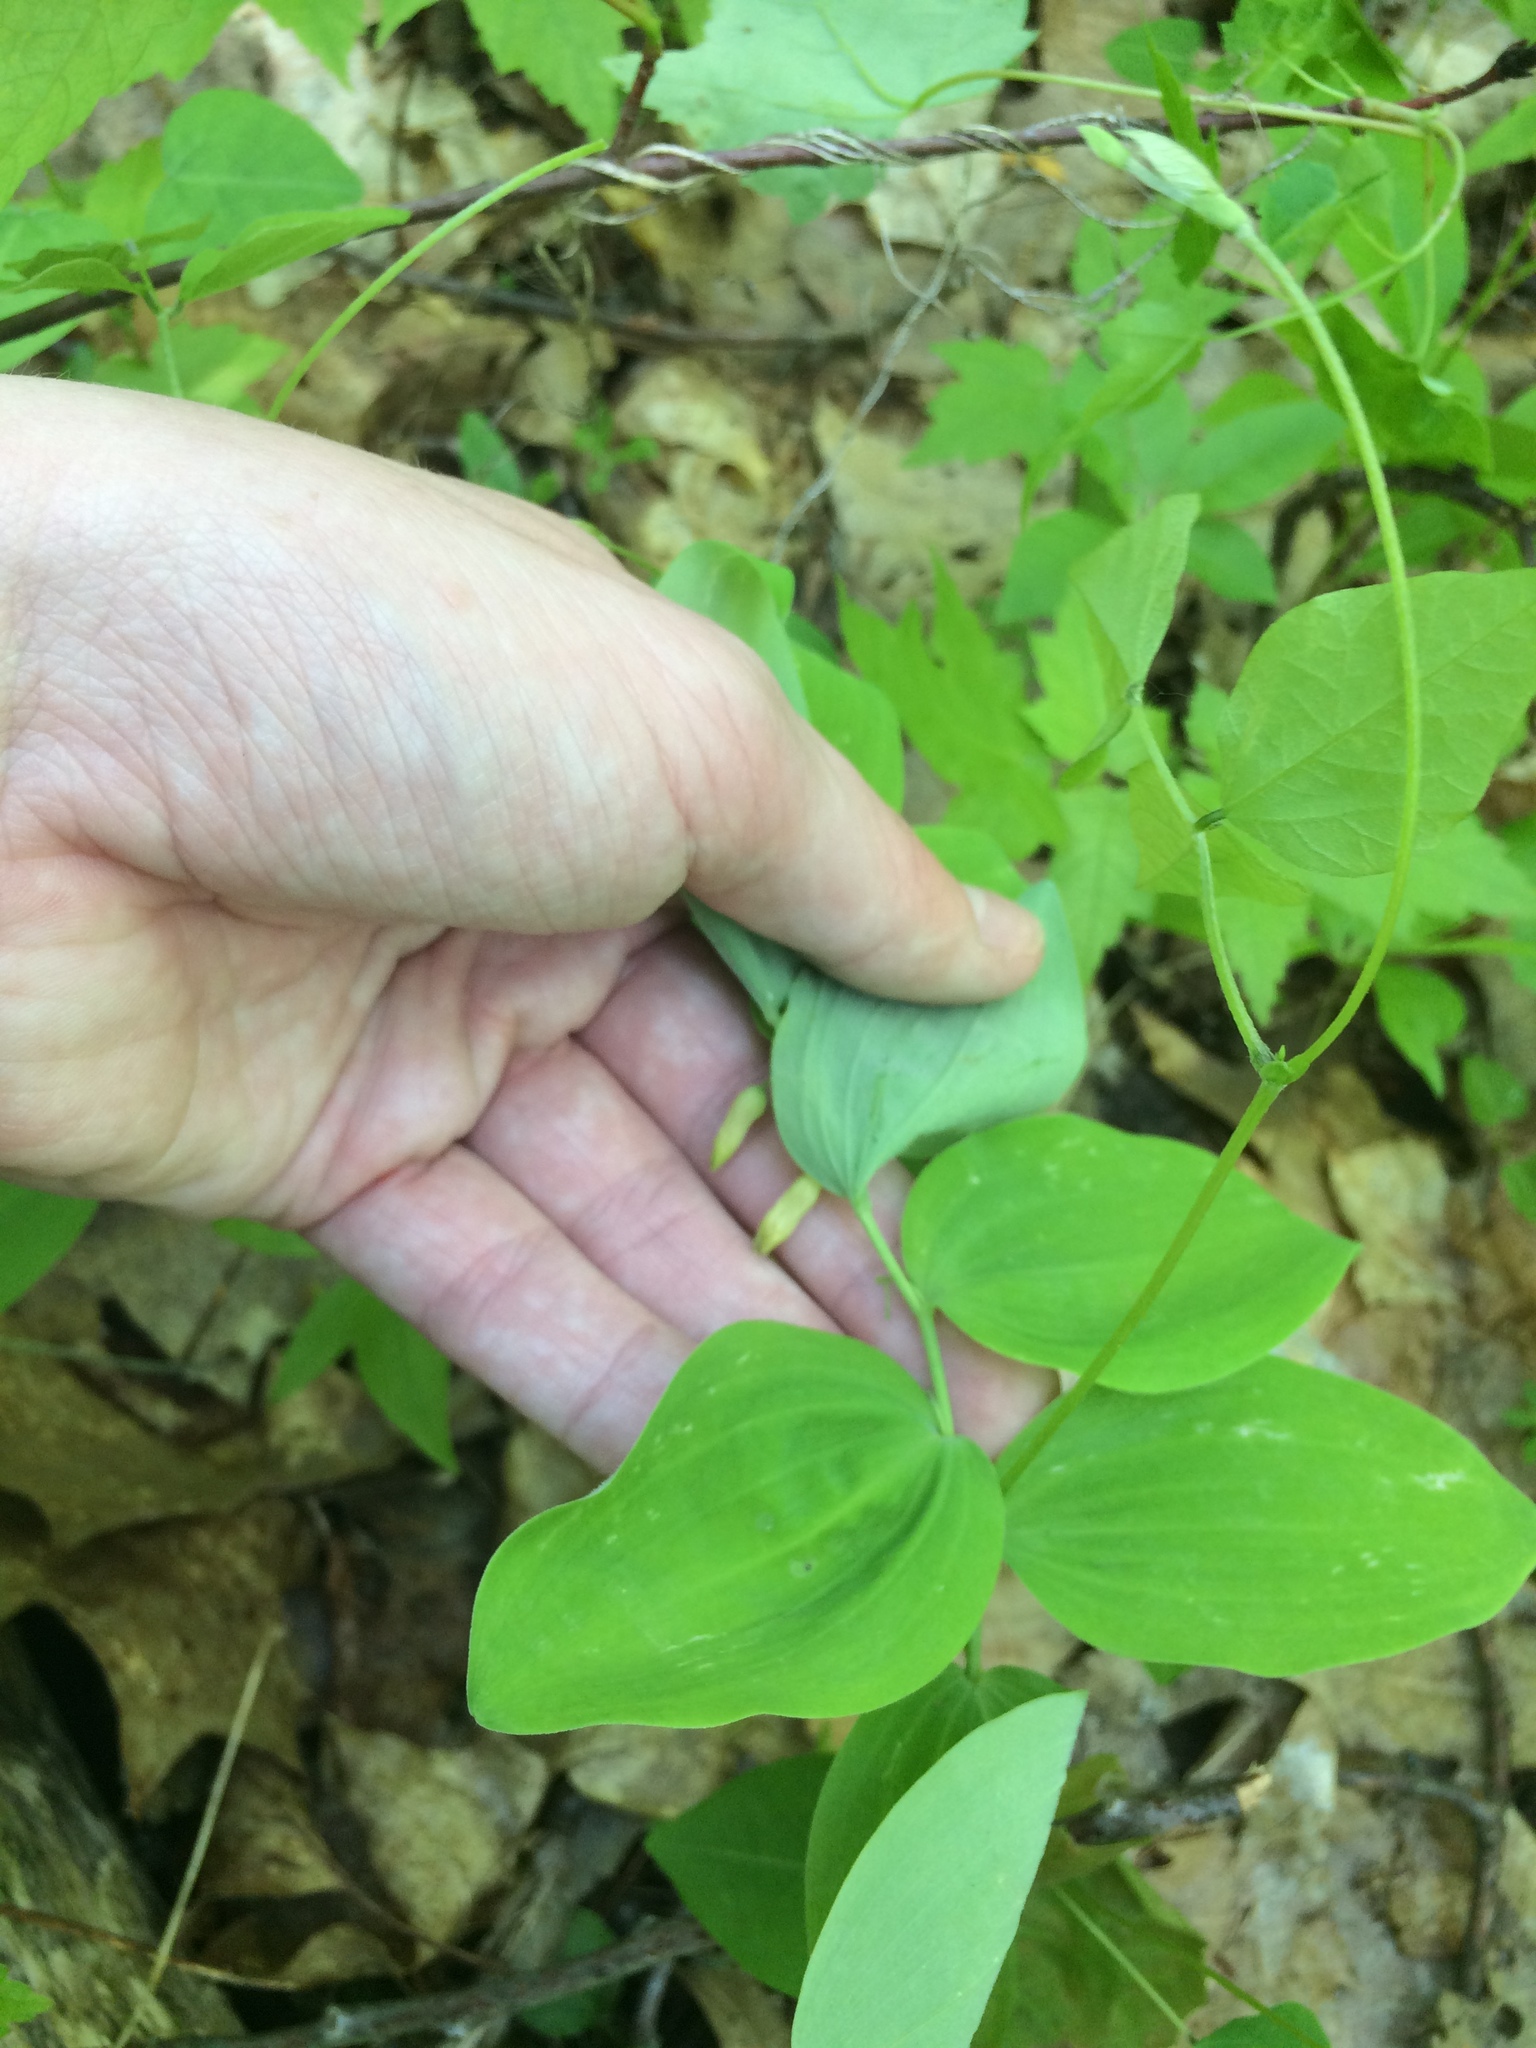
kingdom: Plantae
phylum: Tracheophyta
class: Liliopsida
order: Asparagales
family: Asparagaceae
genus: Polygonatum
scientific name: Polygonatum pubescens
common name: Downy solomon's seal
